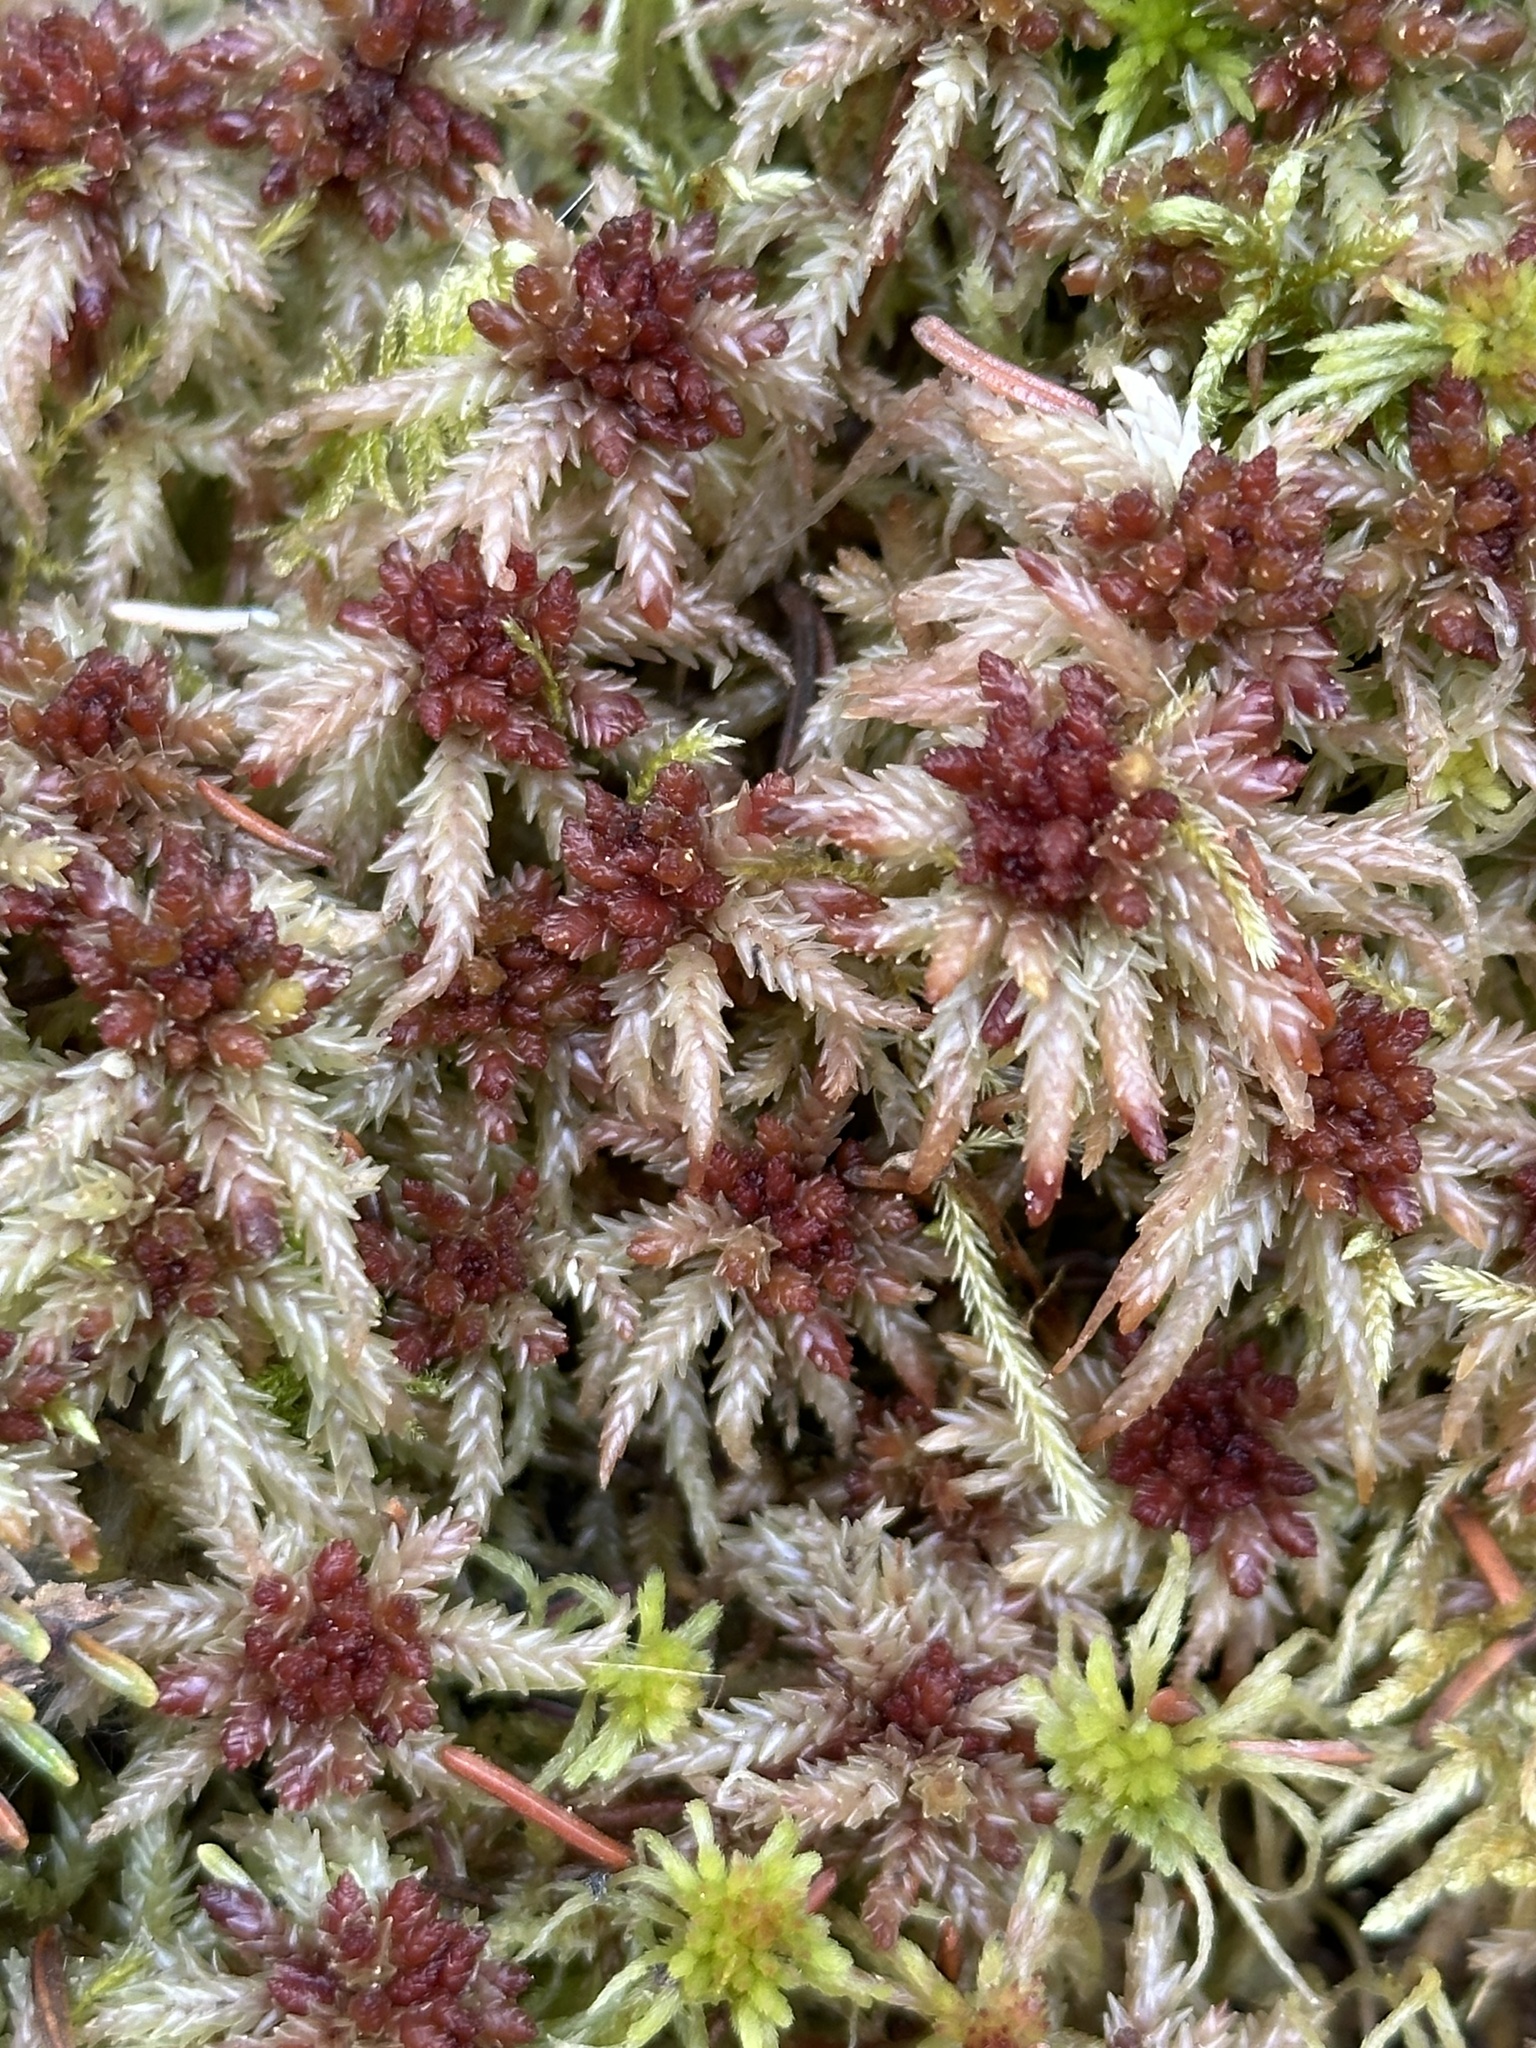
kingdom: Plantae
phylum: Bryophyta
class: Sphagnopsida
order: Sphagnales
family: Sphagnaceae
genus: Sphagnum
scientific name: Sphagnum divinum
